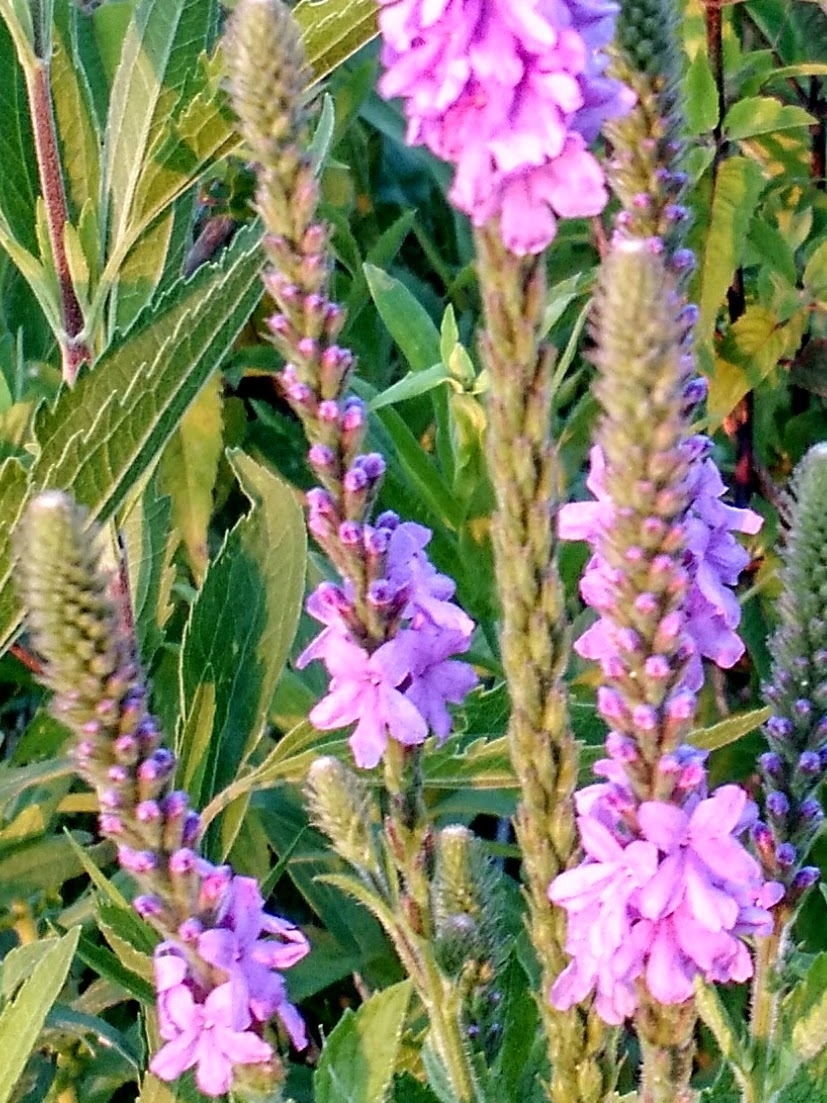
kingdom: Plantae
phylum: Tracheophyta
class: Magnoliopsida
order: Lamiales
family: Verbenaceae
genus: Verbena
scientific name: Verbena stricta
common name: Hoary vervain
